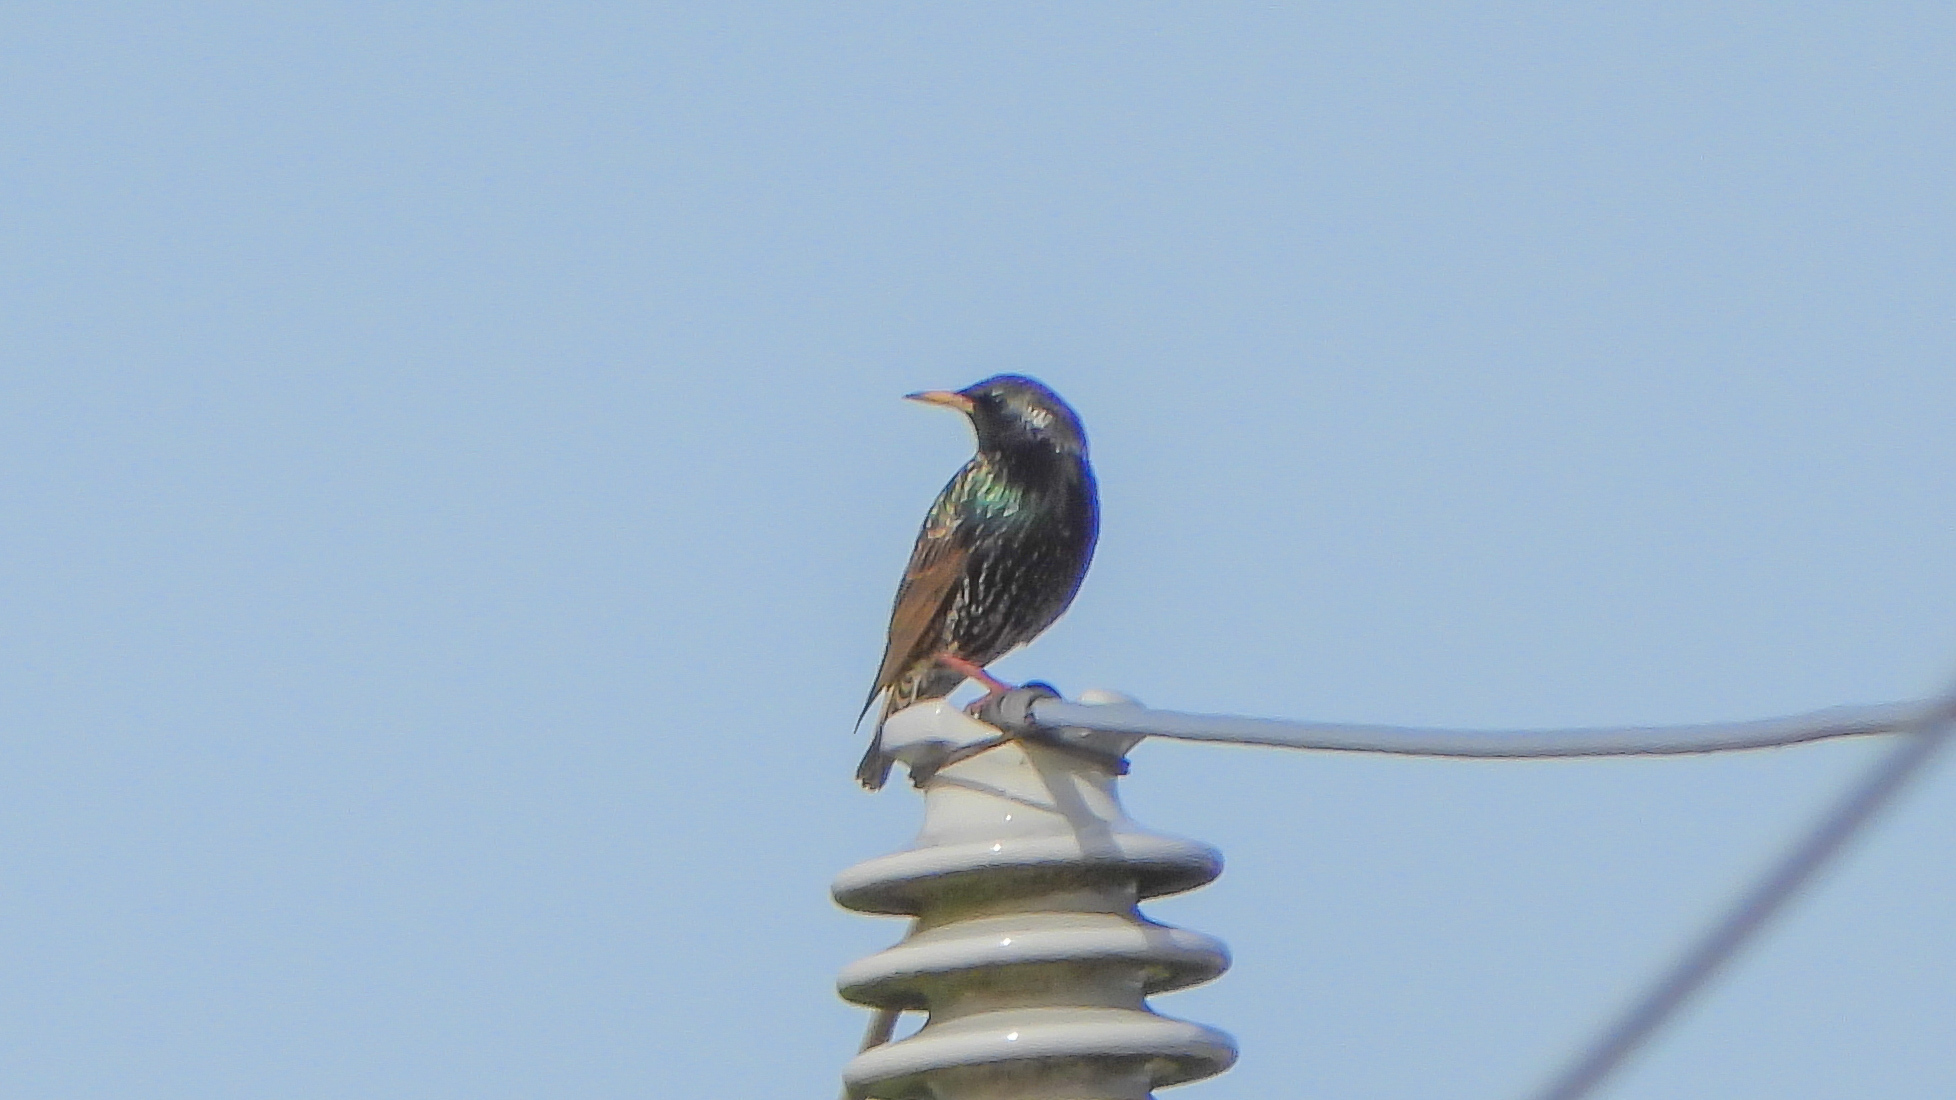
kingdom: Animalia
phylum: Chordata
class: Aves
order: Passeriformes
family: Sturnidae
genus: Sturnus
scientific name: Sturnus vulgaris
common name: Common starling
